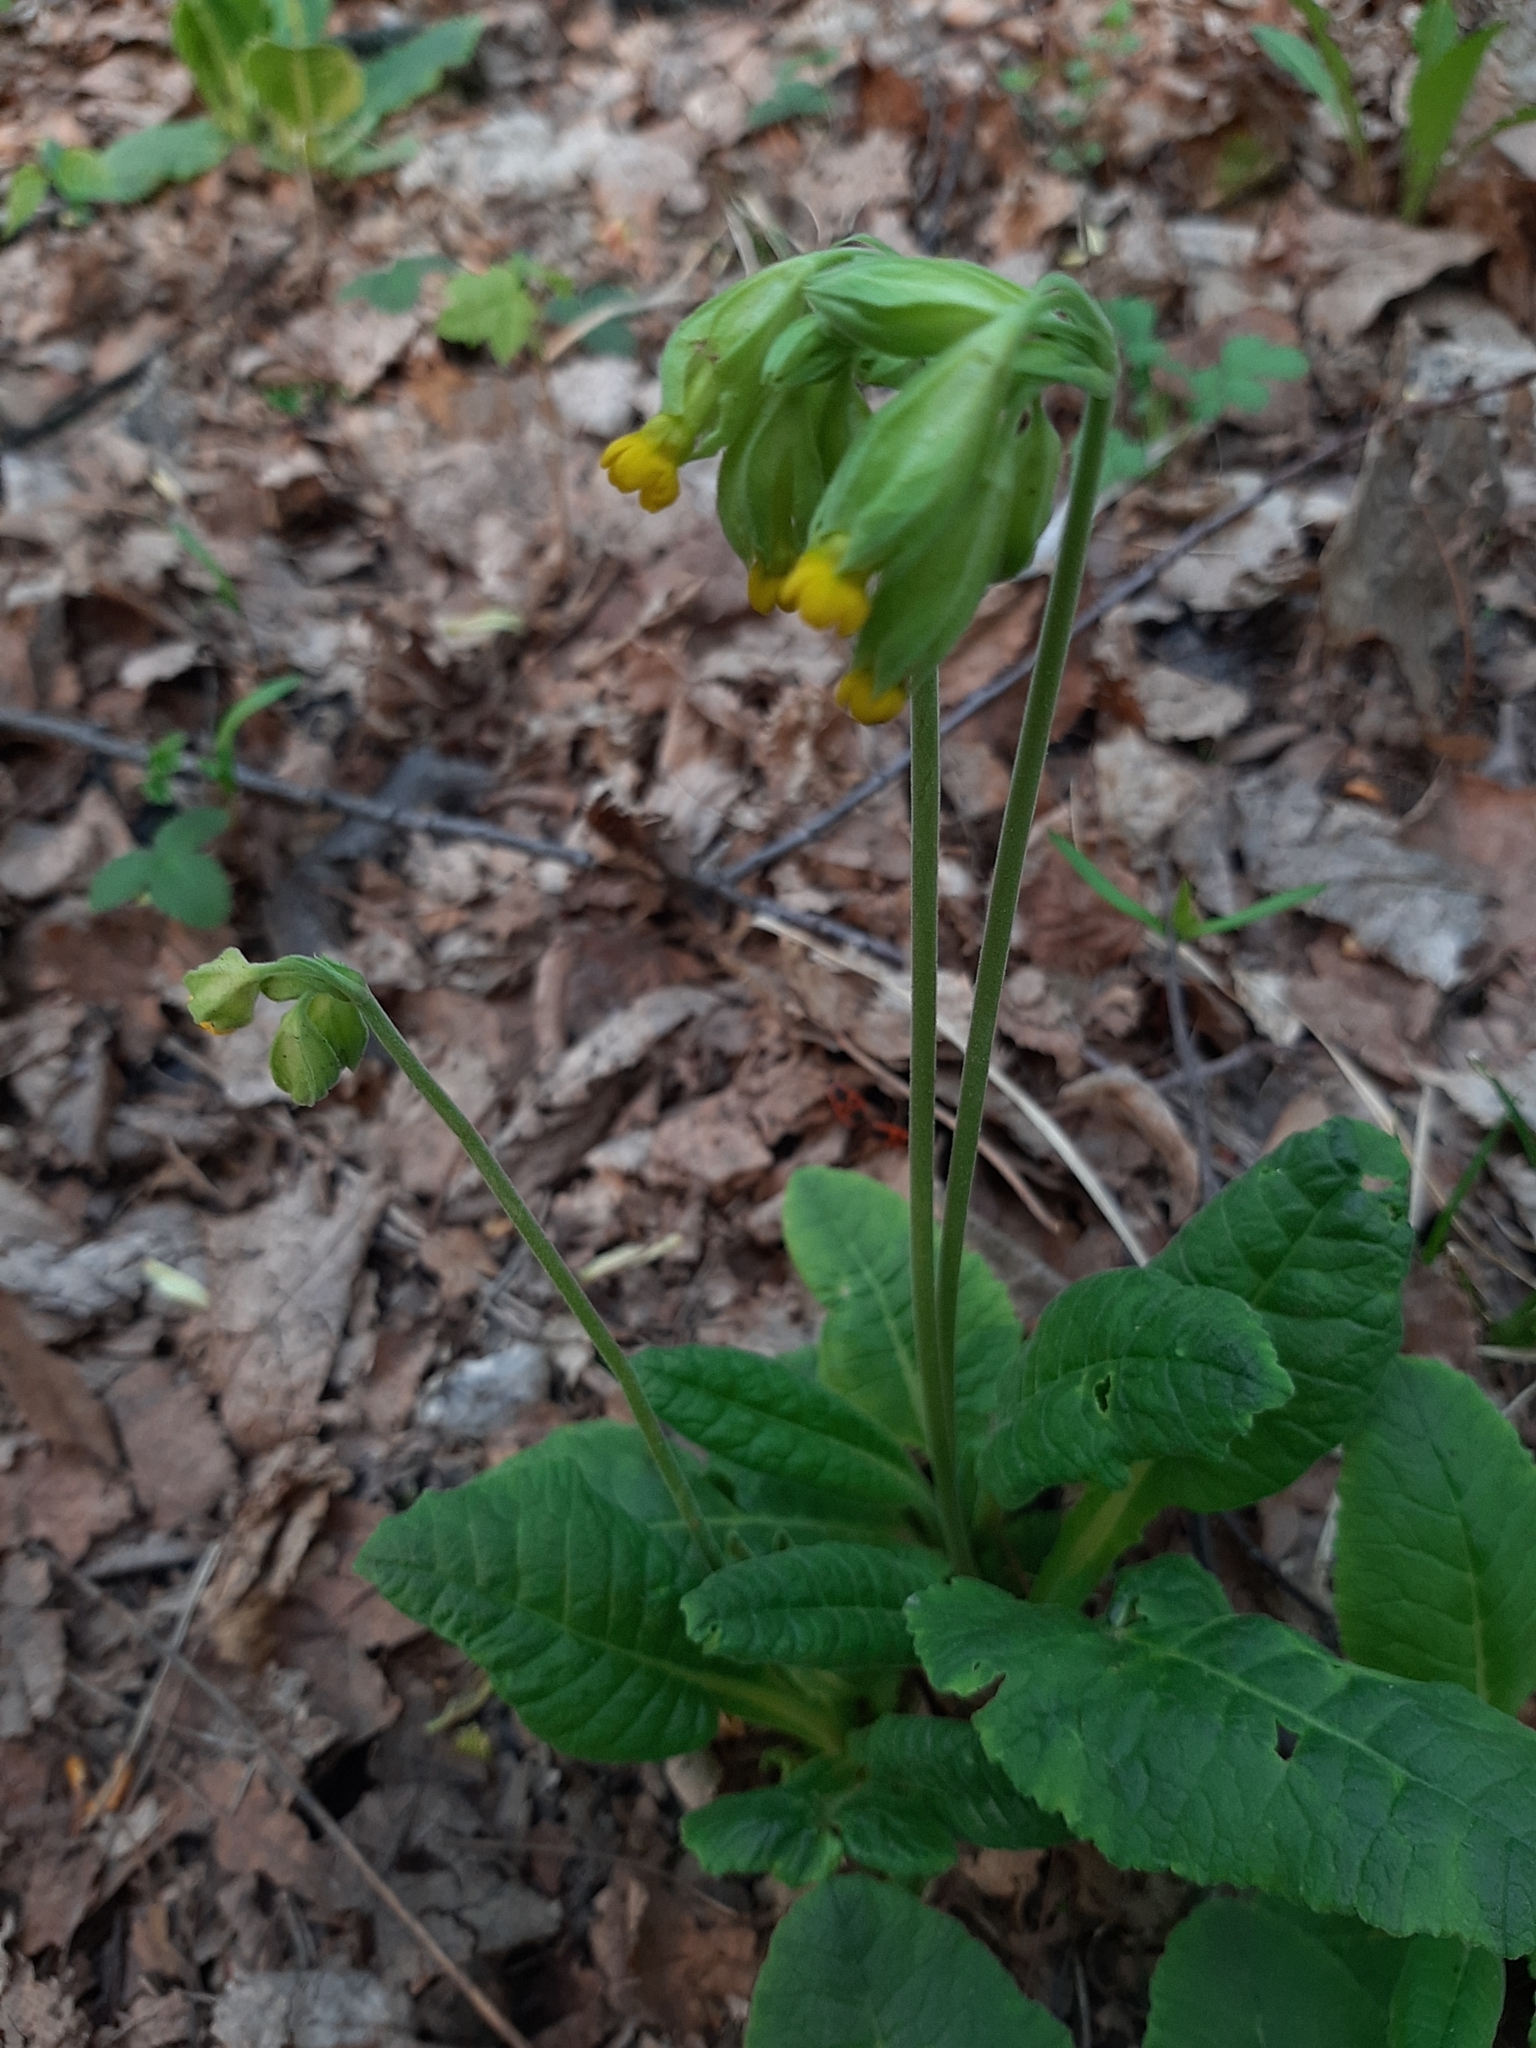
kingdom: Plantae
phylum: Tracheophyta
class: Magnoliopsida
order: Ericales
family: Primulaceae
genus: Primula
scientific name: Primula veris
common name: Cowslip
